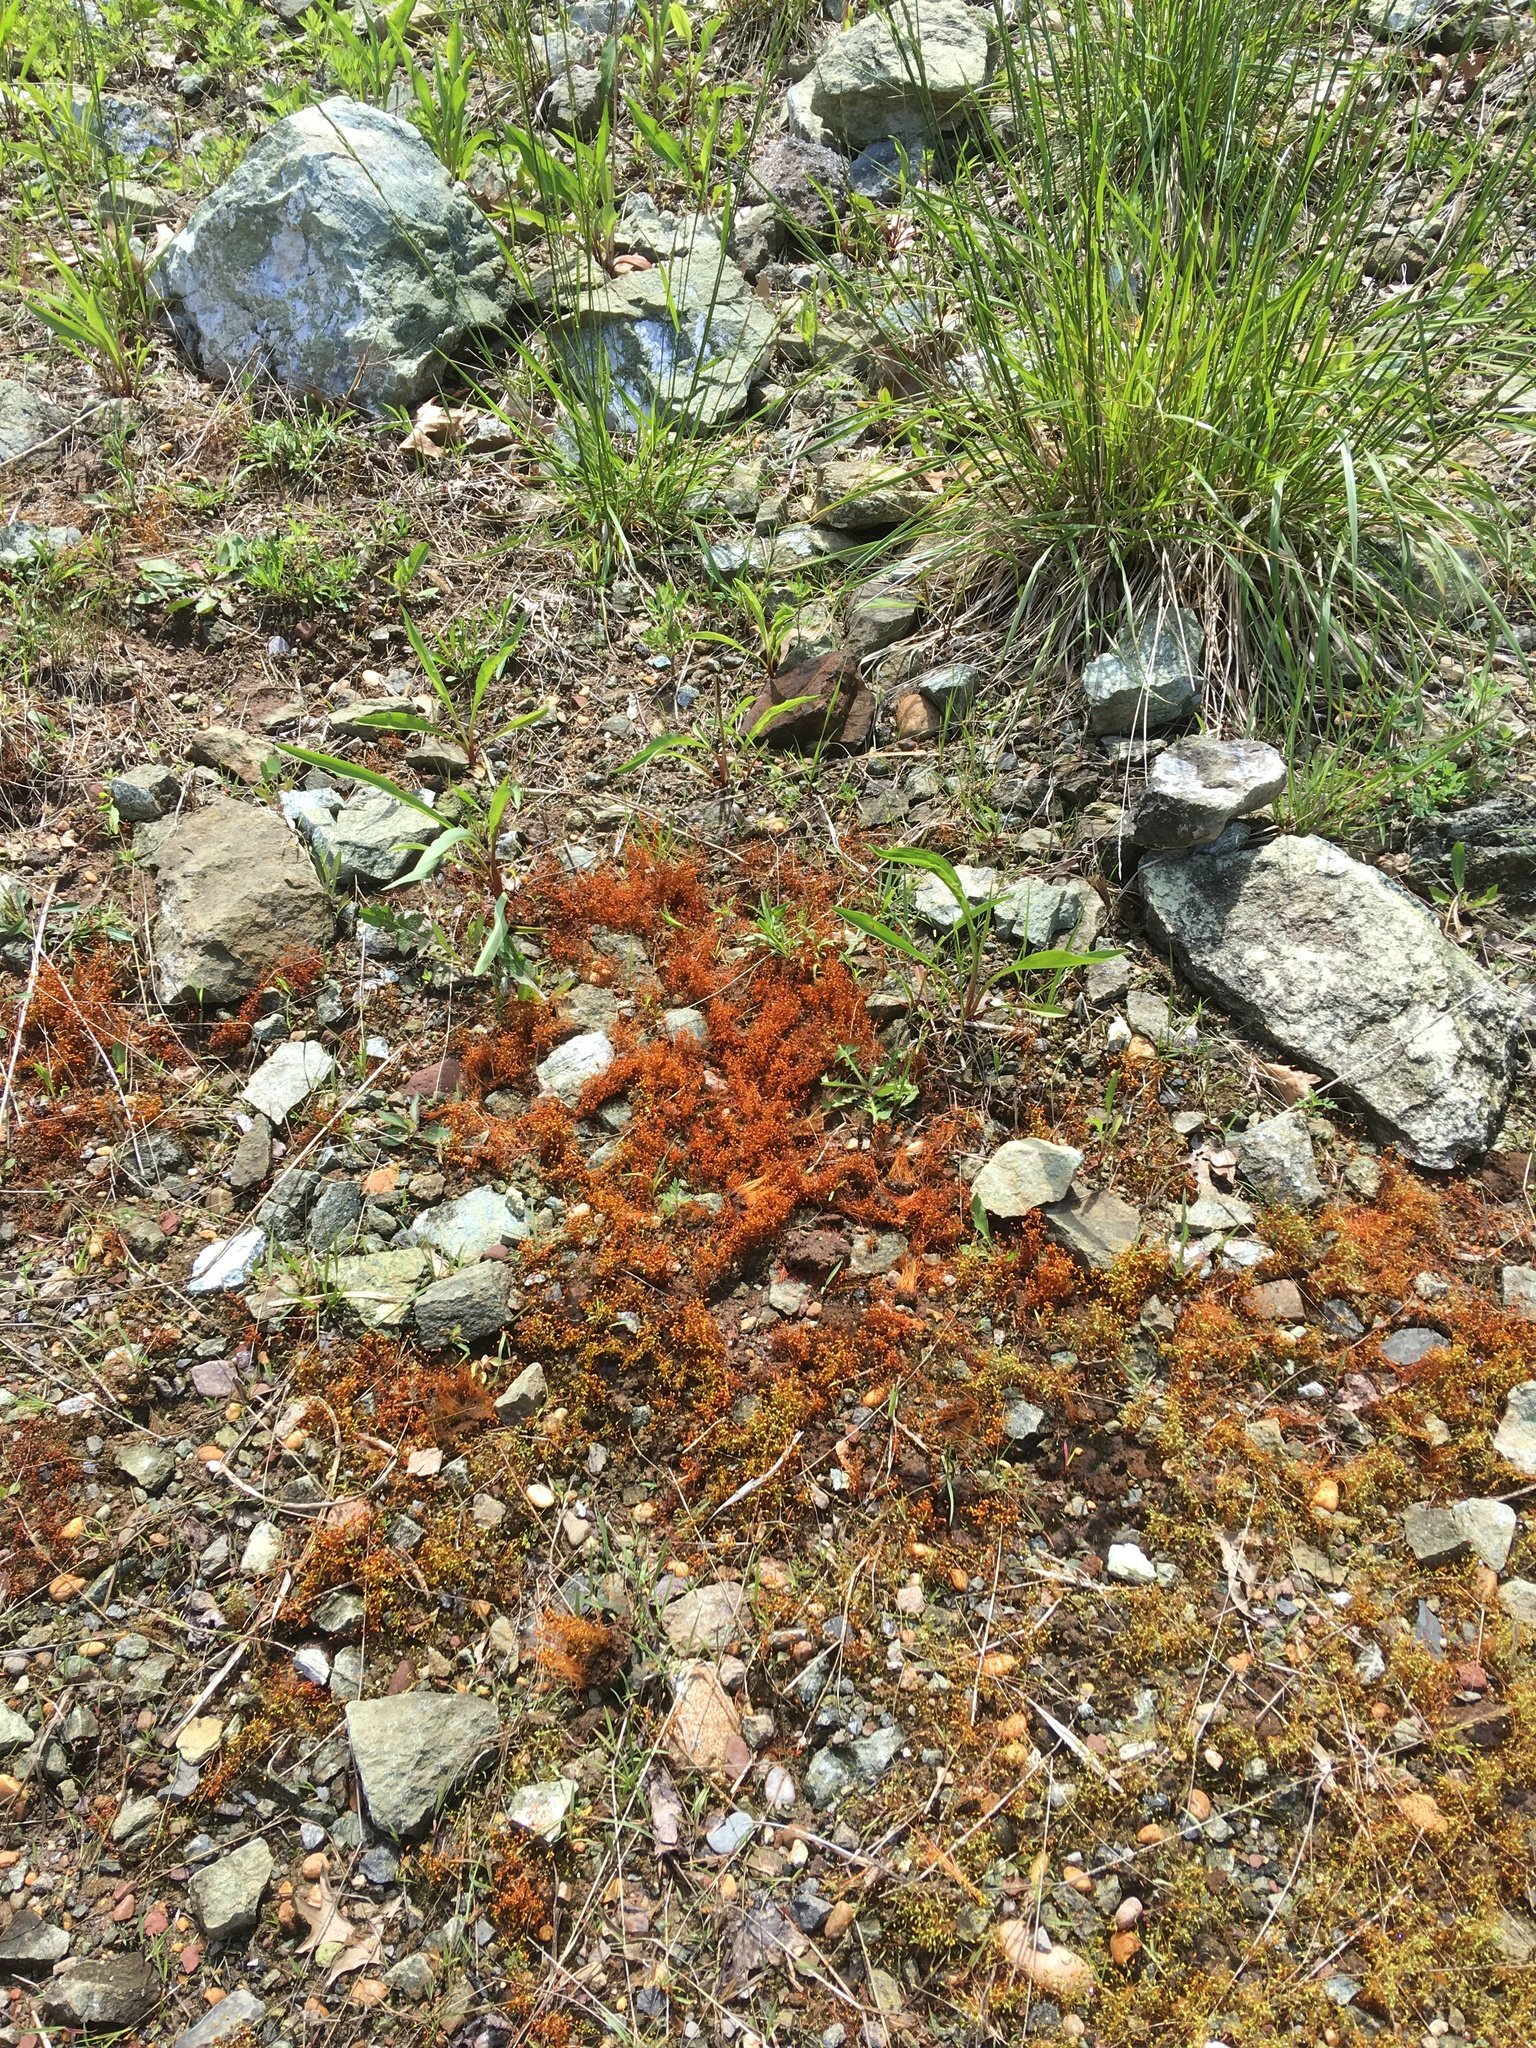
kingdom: Plantae
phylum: Bryophyta
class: Bryopsida
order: Funariales
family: Funariaceae
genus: Funaria
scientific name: Funaria hygrometrica
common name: Common cord moss
